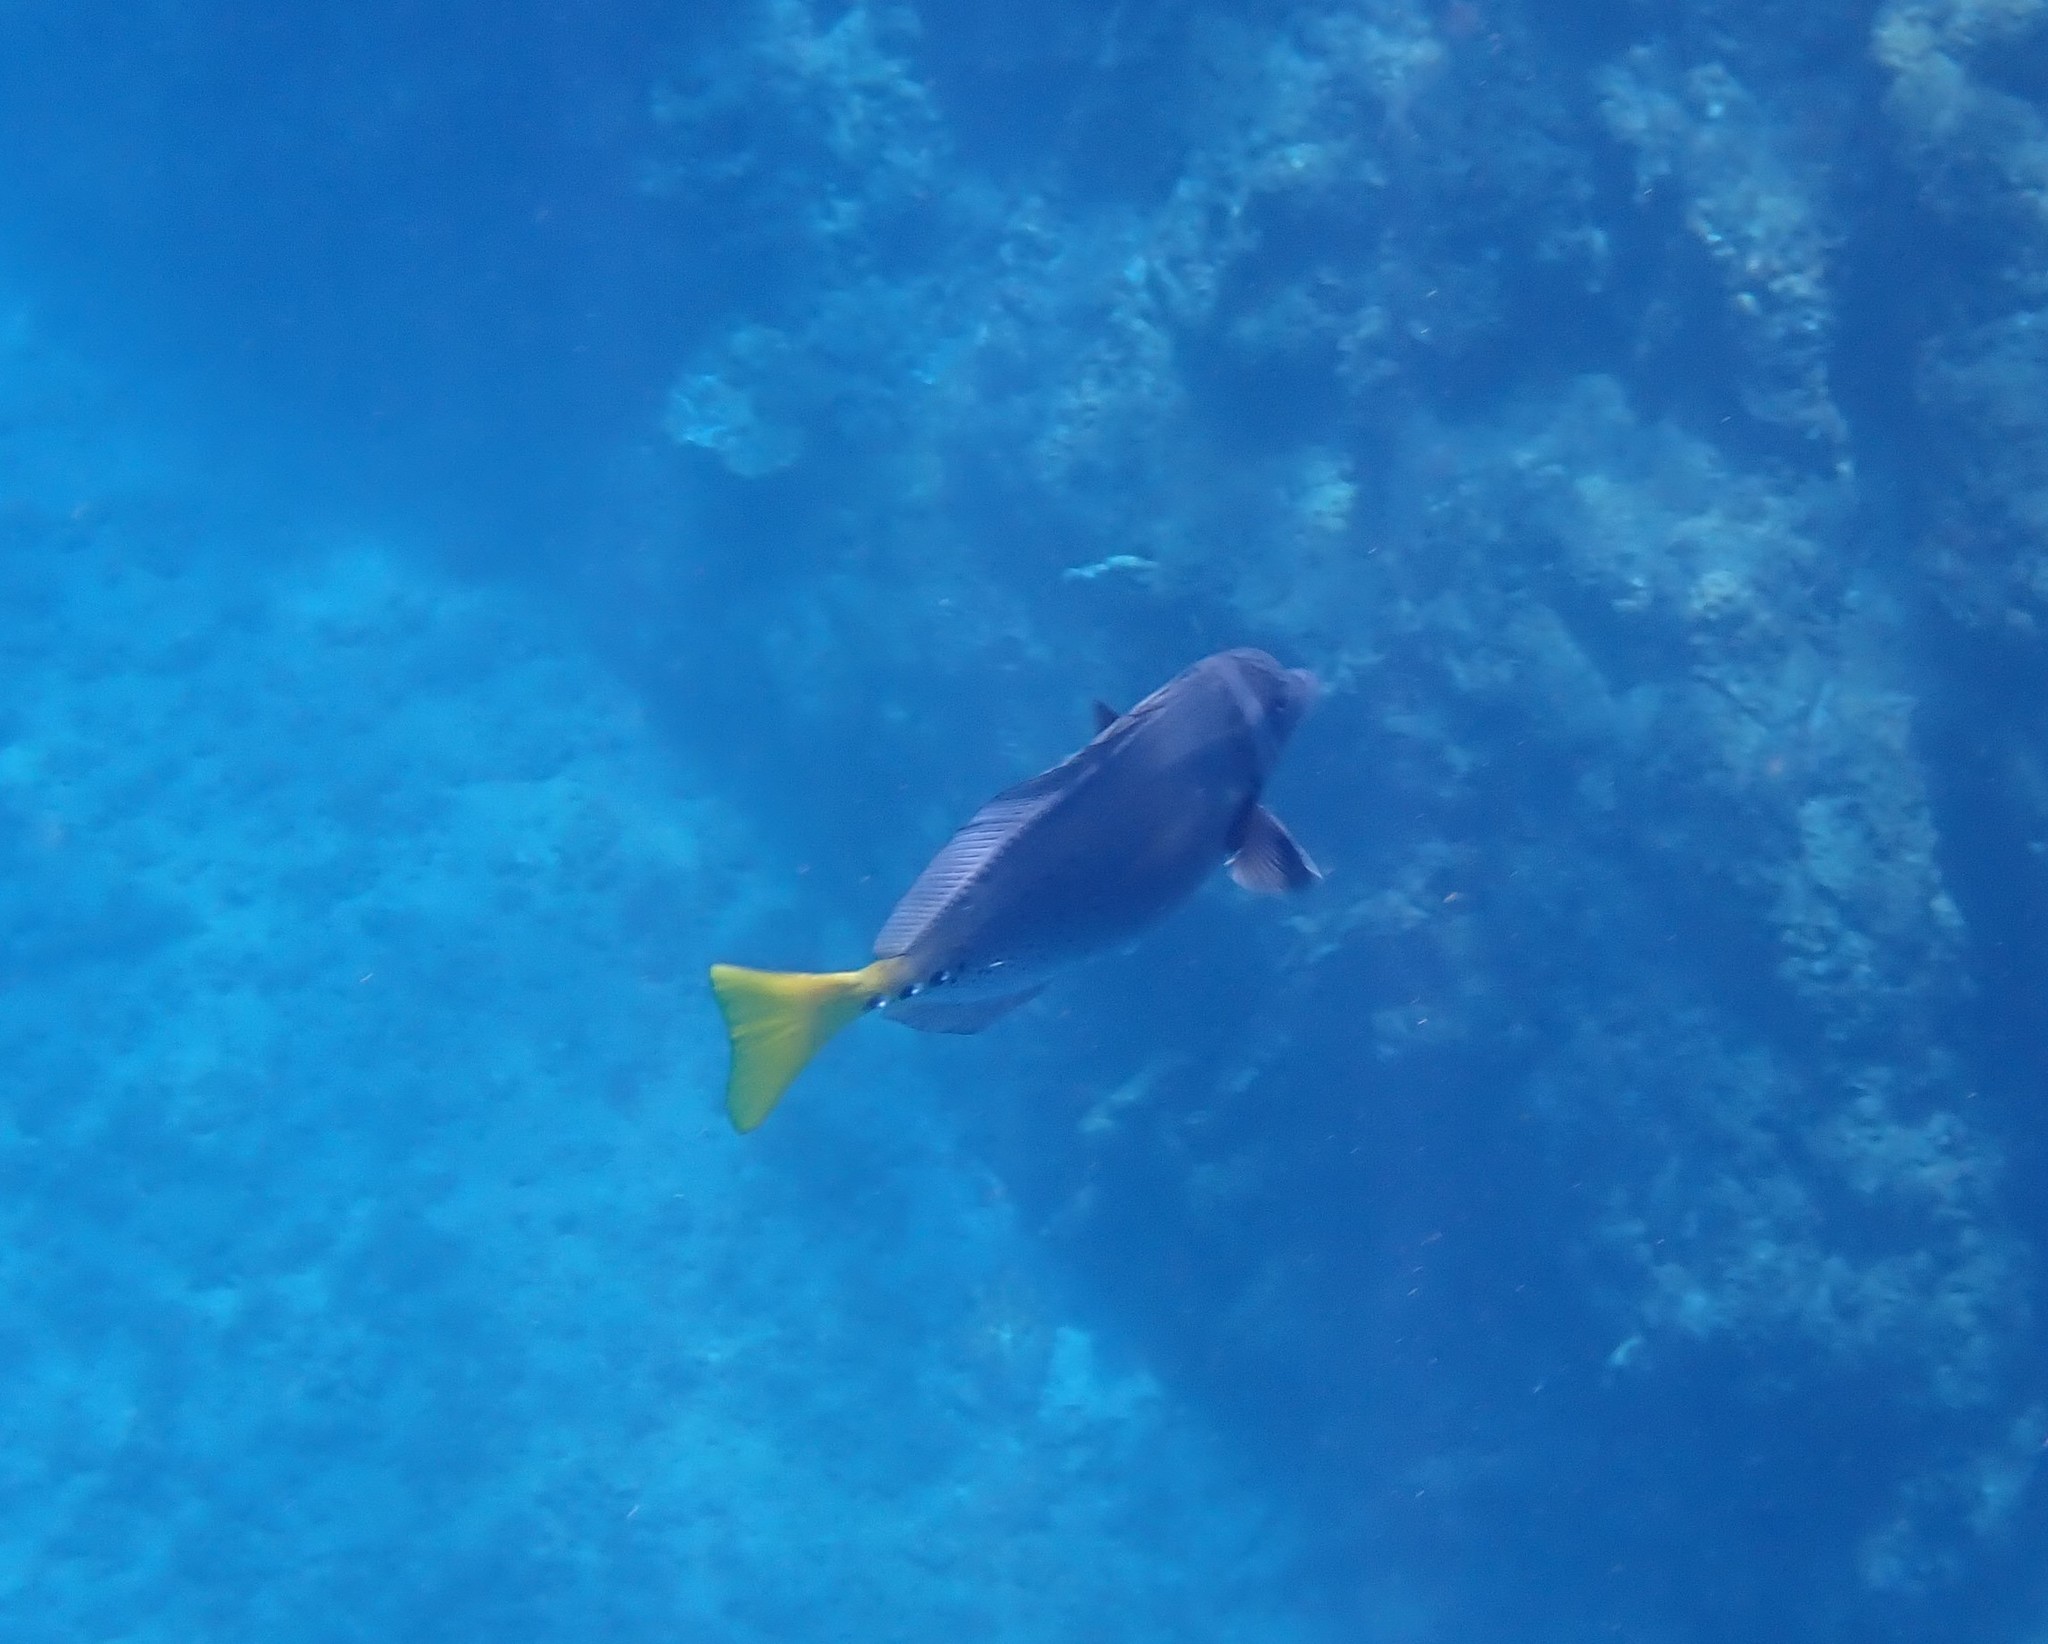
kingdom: Animalia
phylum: Chordata
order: Perciformes
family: Acanthuridae
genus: Prionurus
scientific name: Prionurus laticlavius
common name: Razor surgeonfish
